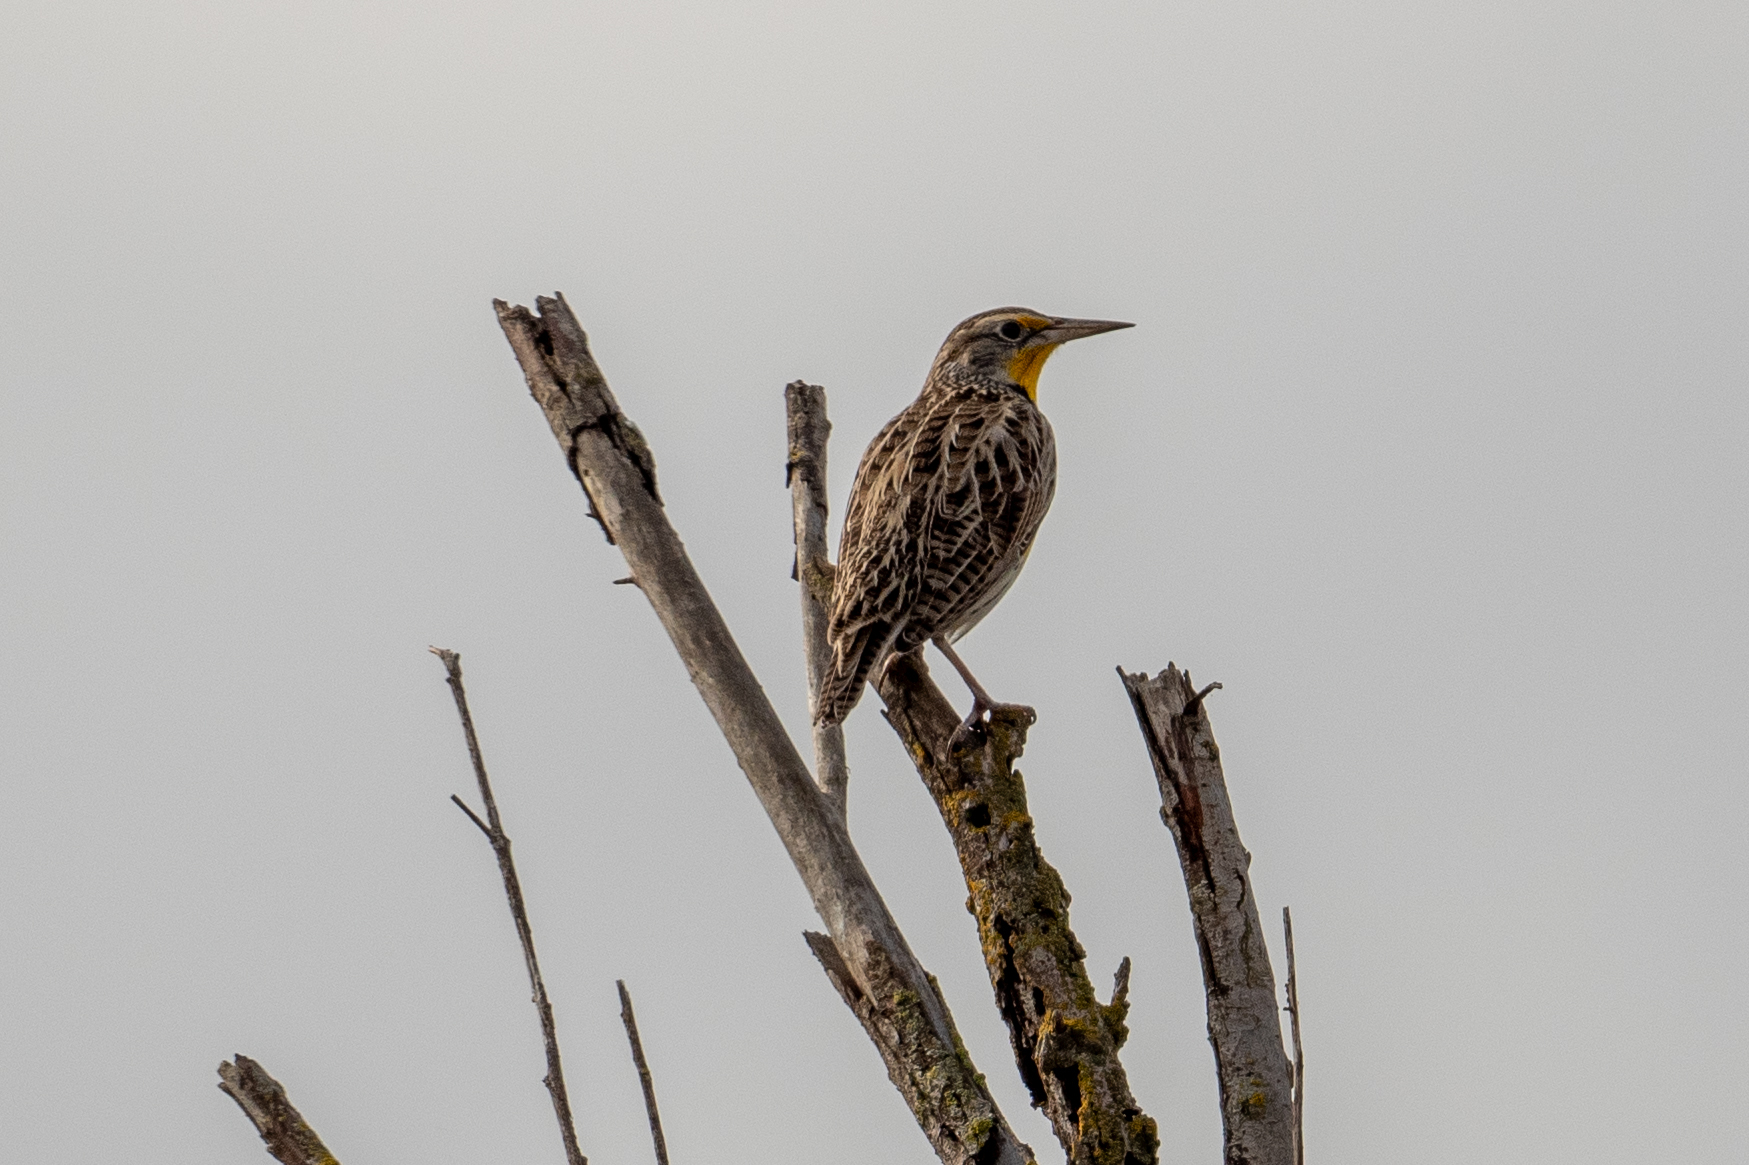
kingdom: Animalia
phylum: Chordata
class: Aves
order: Passeriformes
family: Icteridae
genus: Sturnella
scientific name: Sturnella neglecta
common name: Western meadowlark
